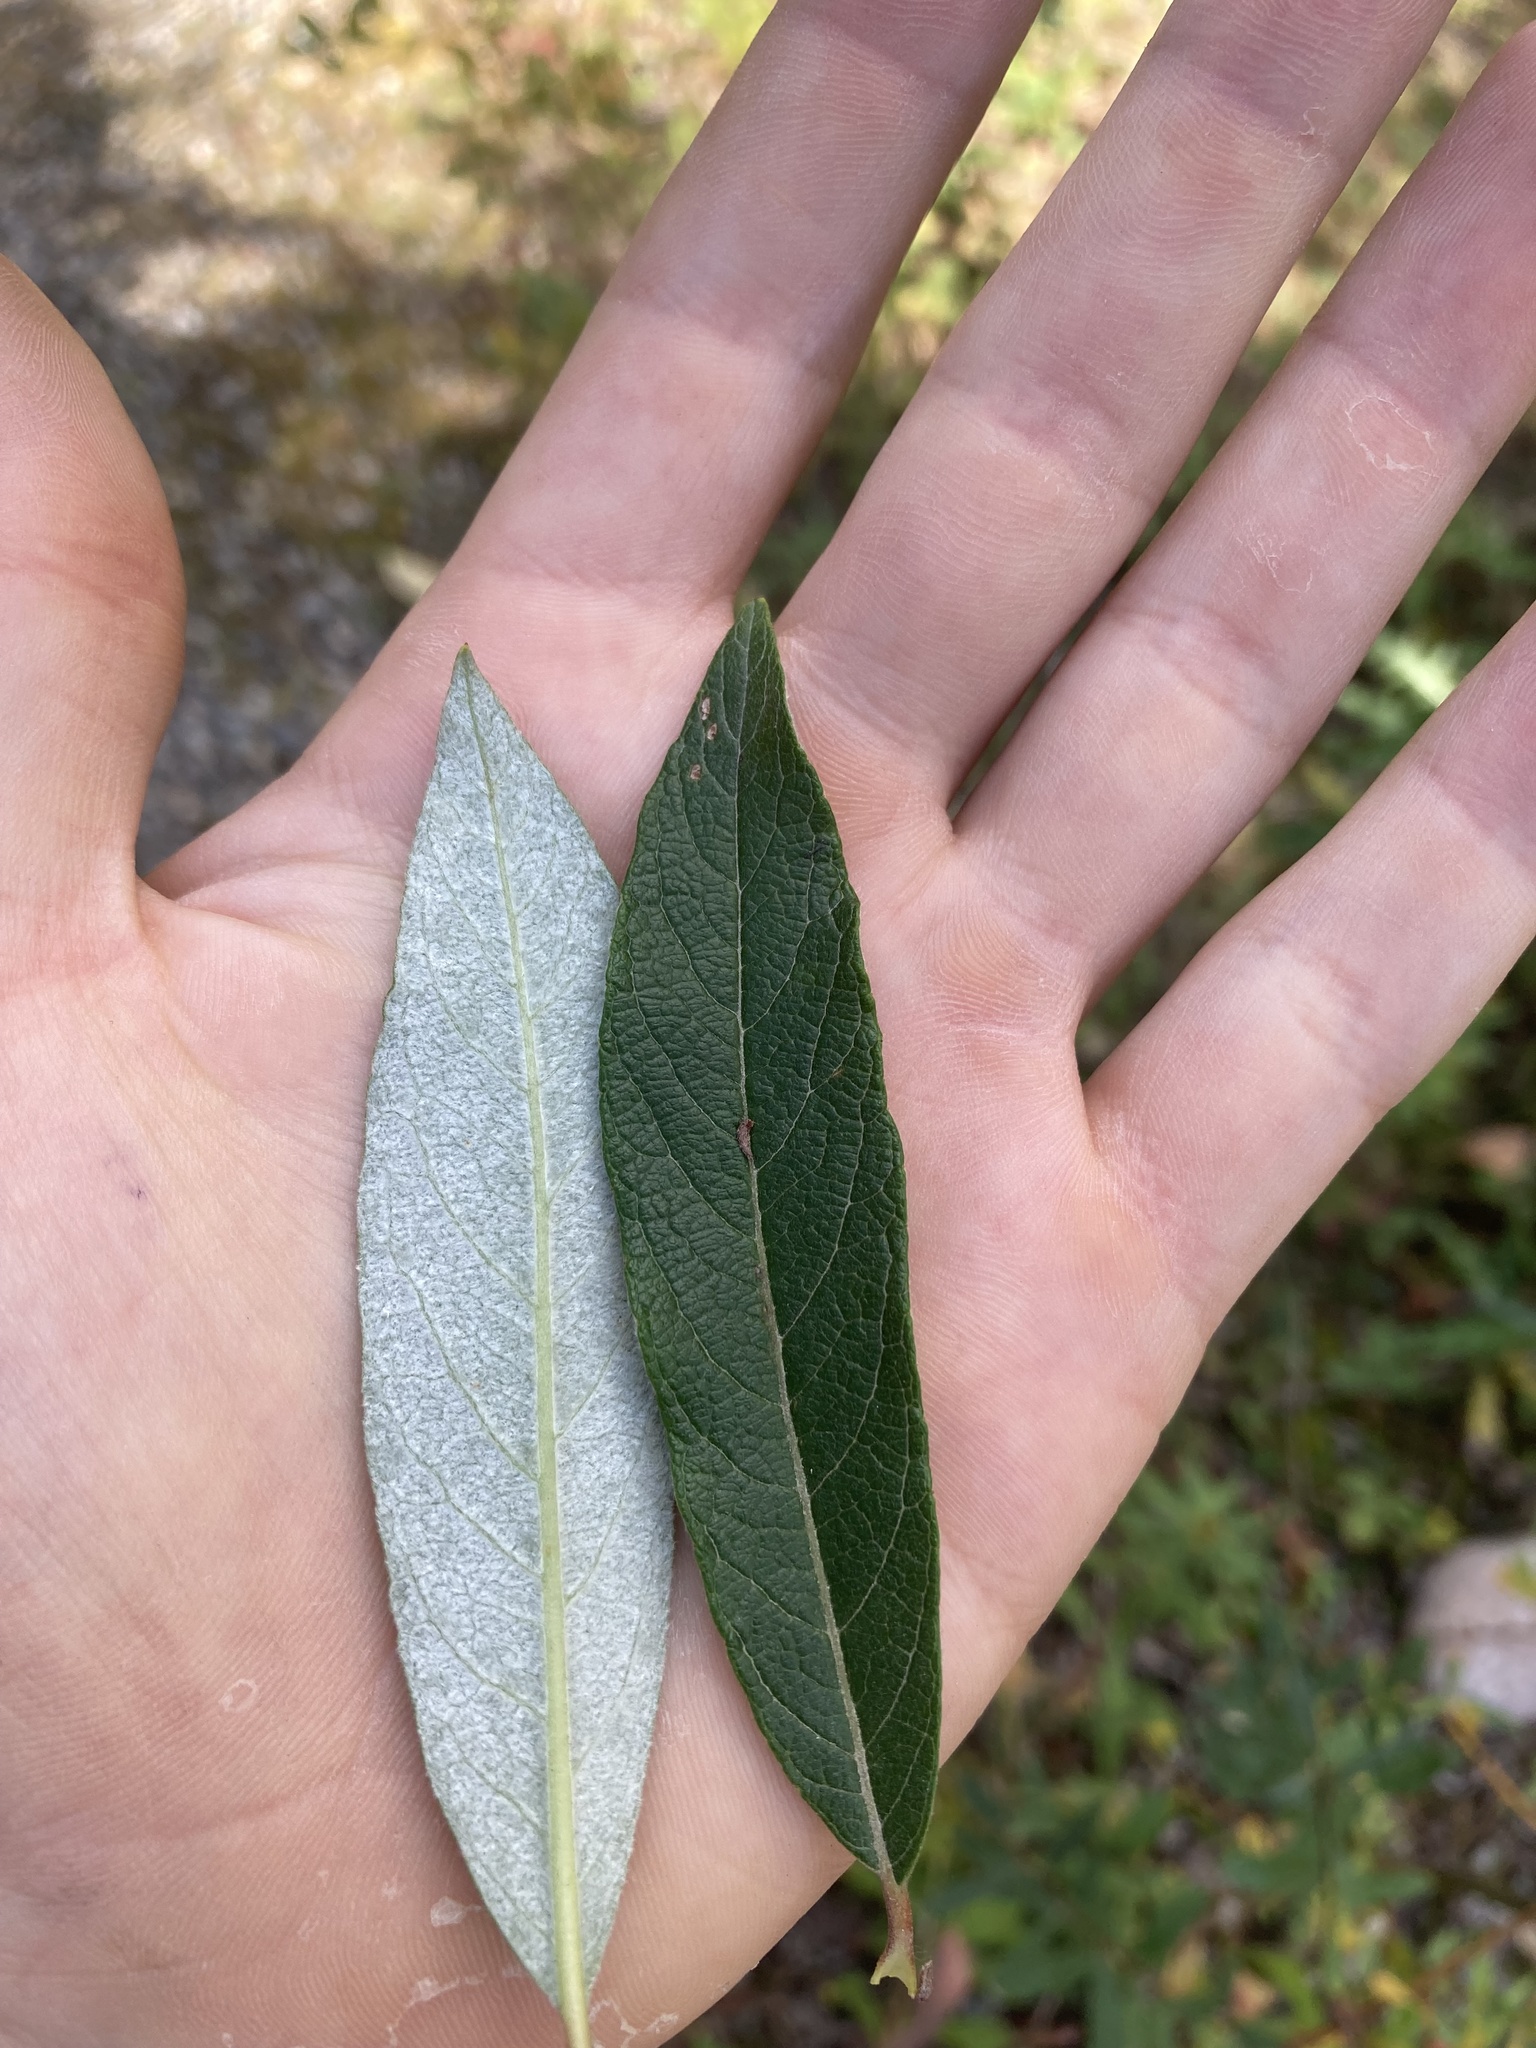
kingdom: Plantae
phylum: Tracheophyta
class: Magnoliopsida
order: Malpighiales
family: Salicaceae
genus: Salix
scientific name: Salix drummondiana
